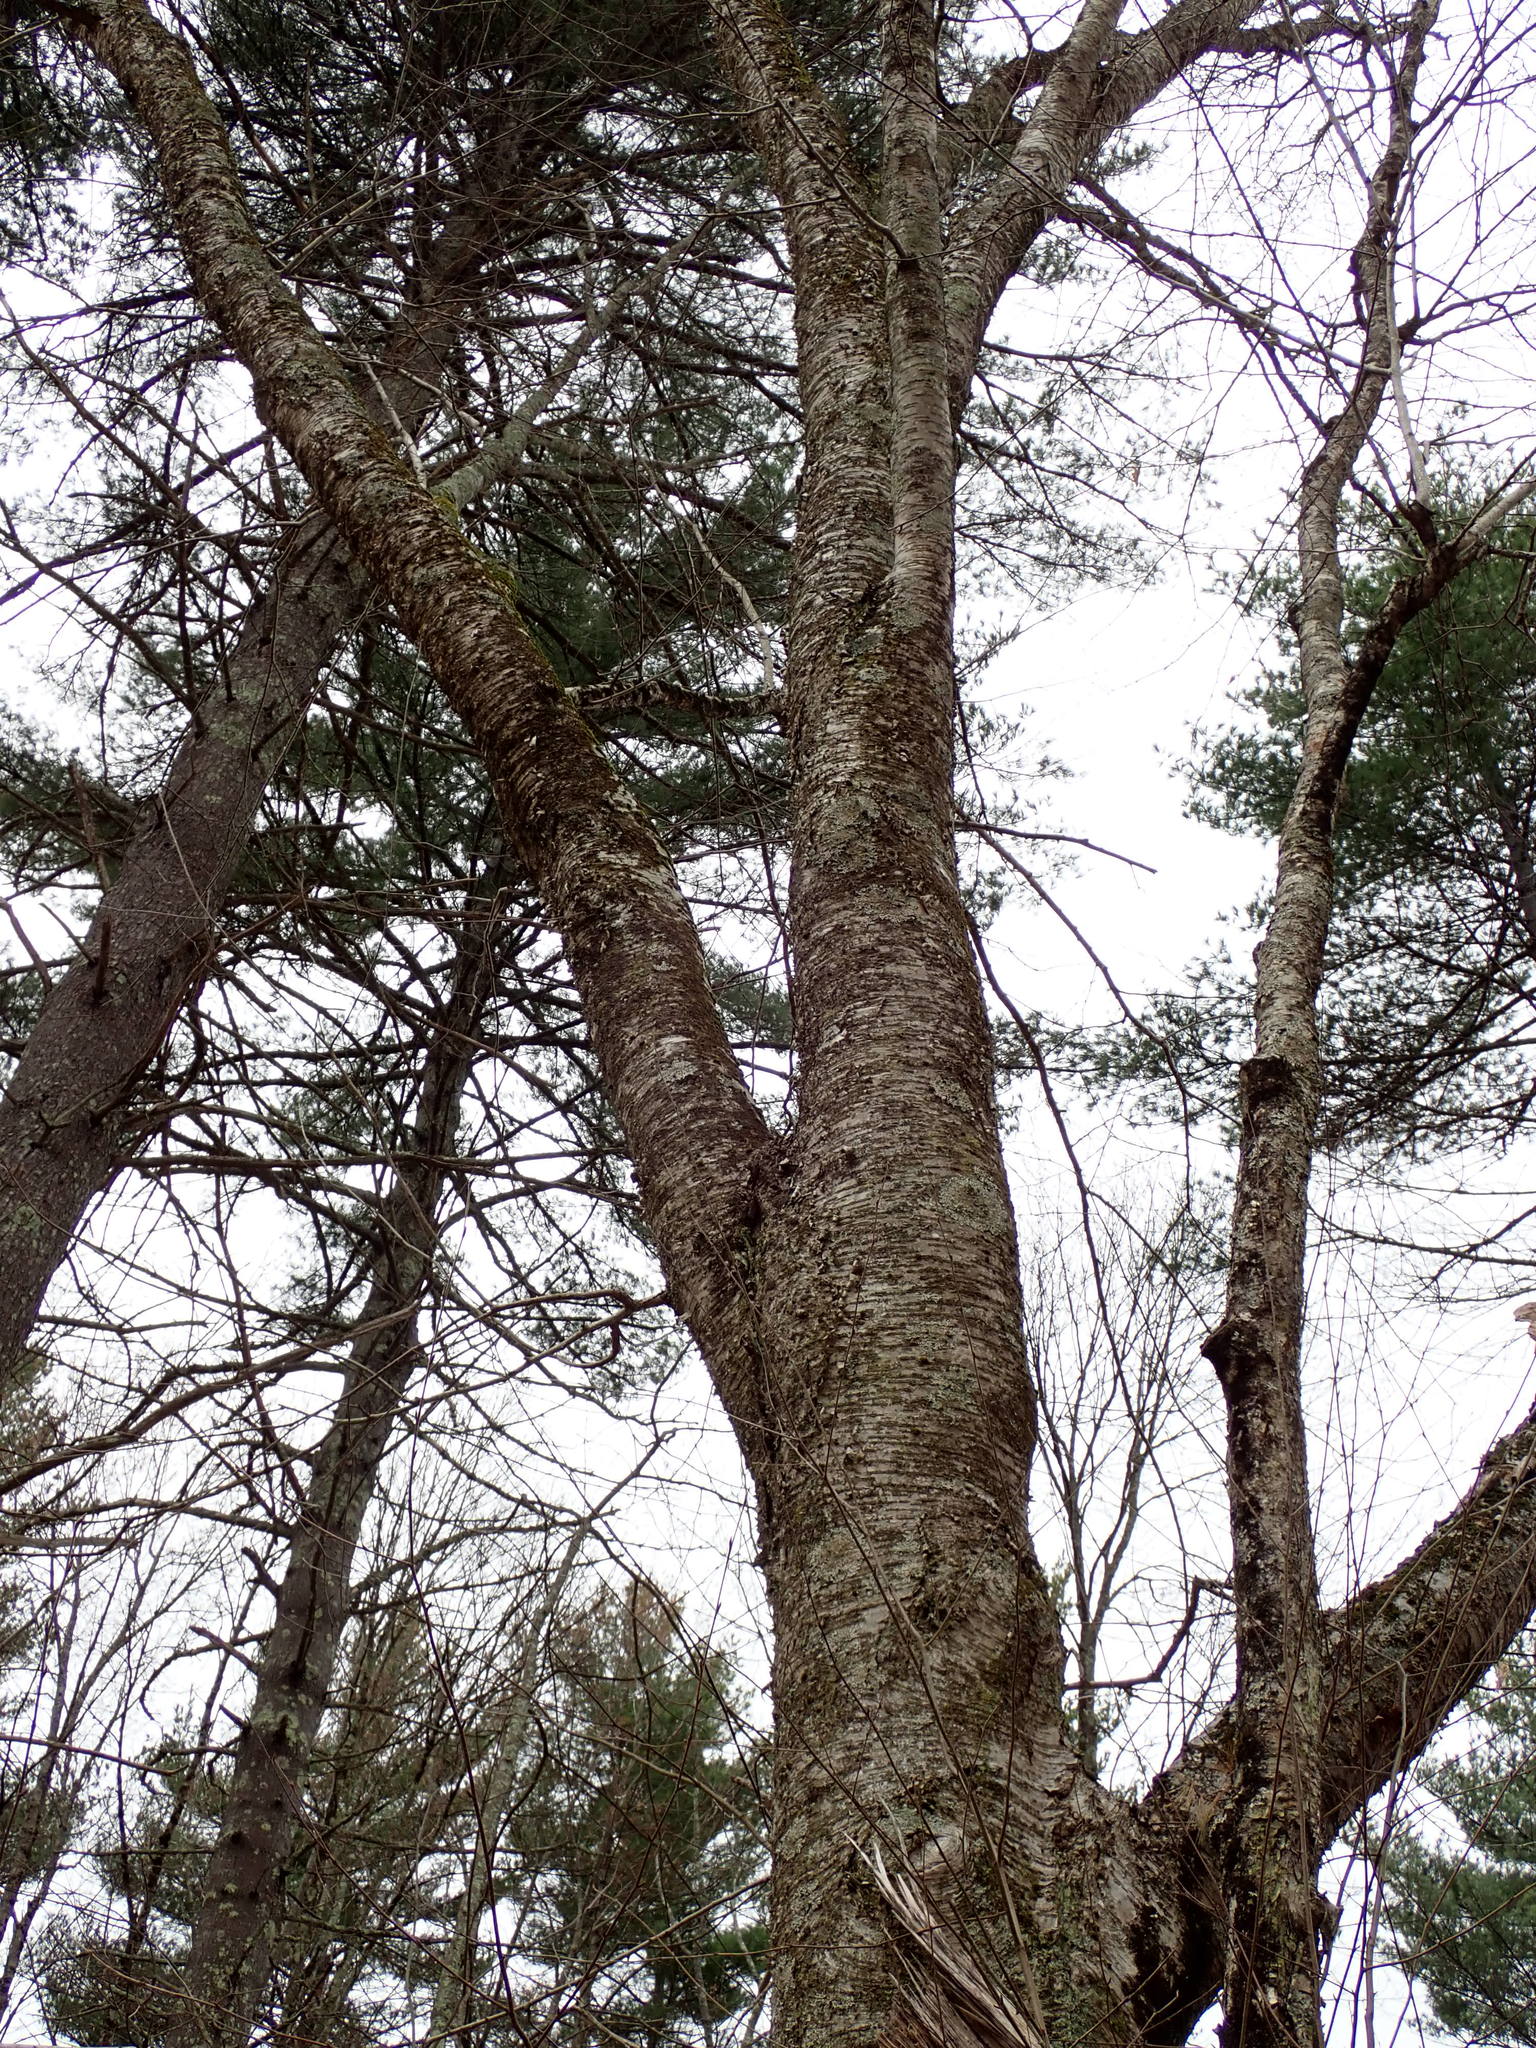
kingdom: Plantae
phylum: Tracheophyta
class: Magnoliopsida
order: Fagales
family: Betulaceae
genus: Betula
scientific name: Betula alleghaniensis
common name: Yellow birch
